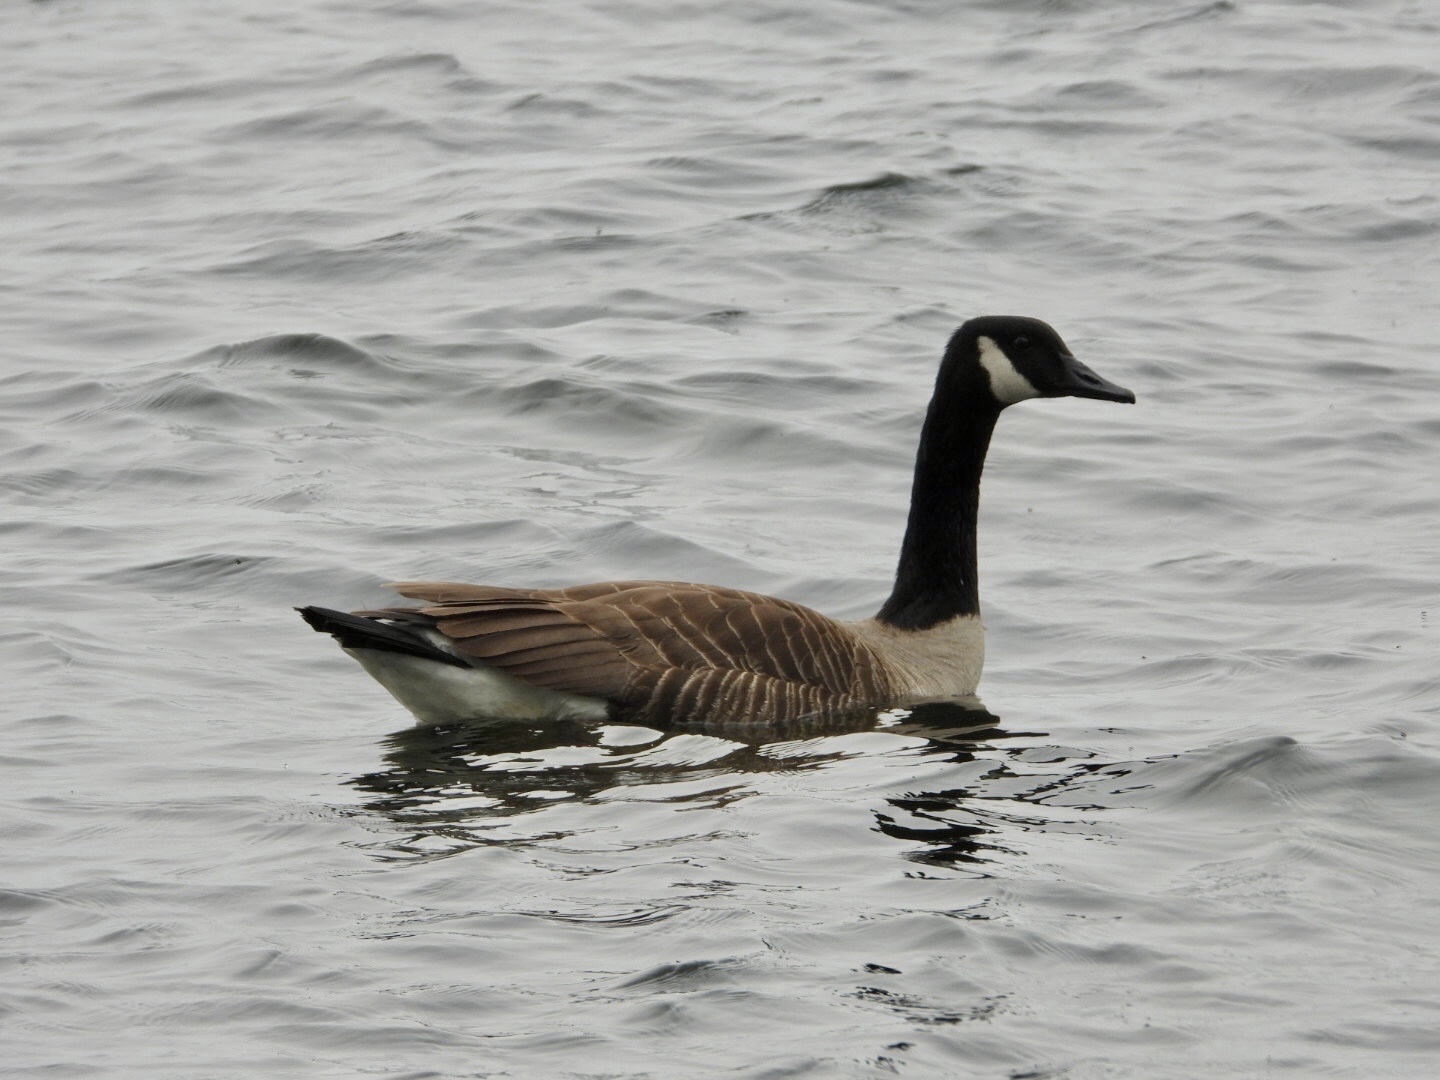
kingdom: Animalia
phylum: Chordata
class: Aves
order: Anseriformes
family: Anatidae
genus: Branta
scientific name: Branta canadensis
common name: Canada goose
